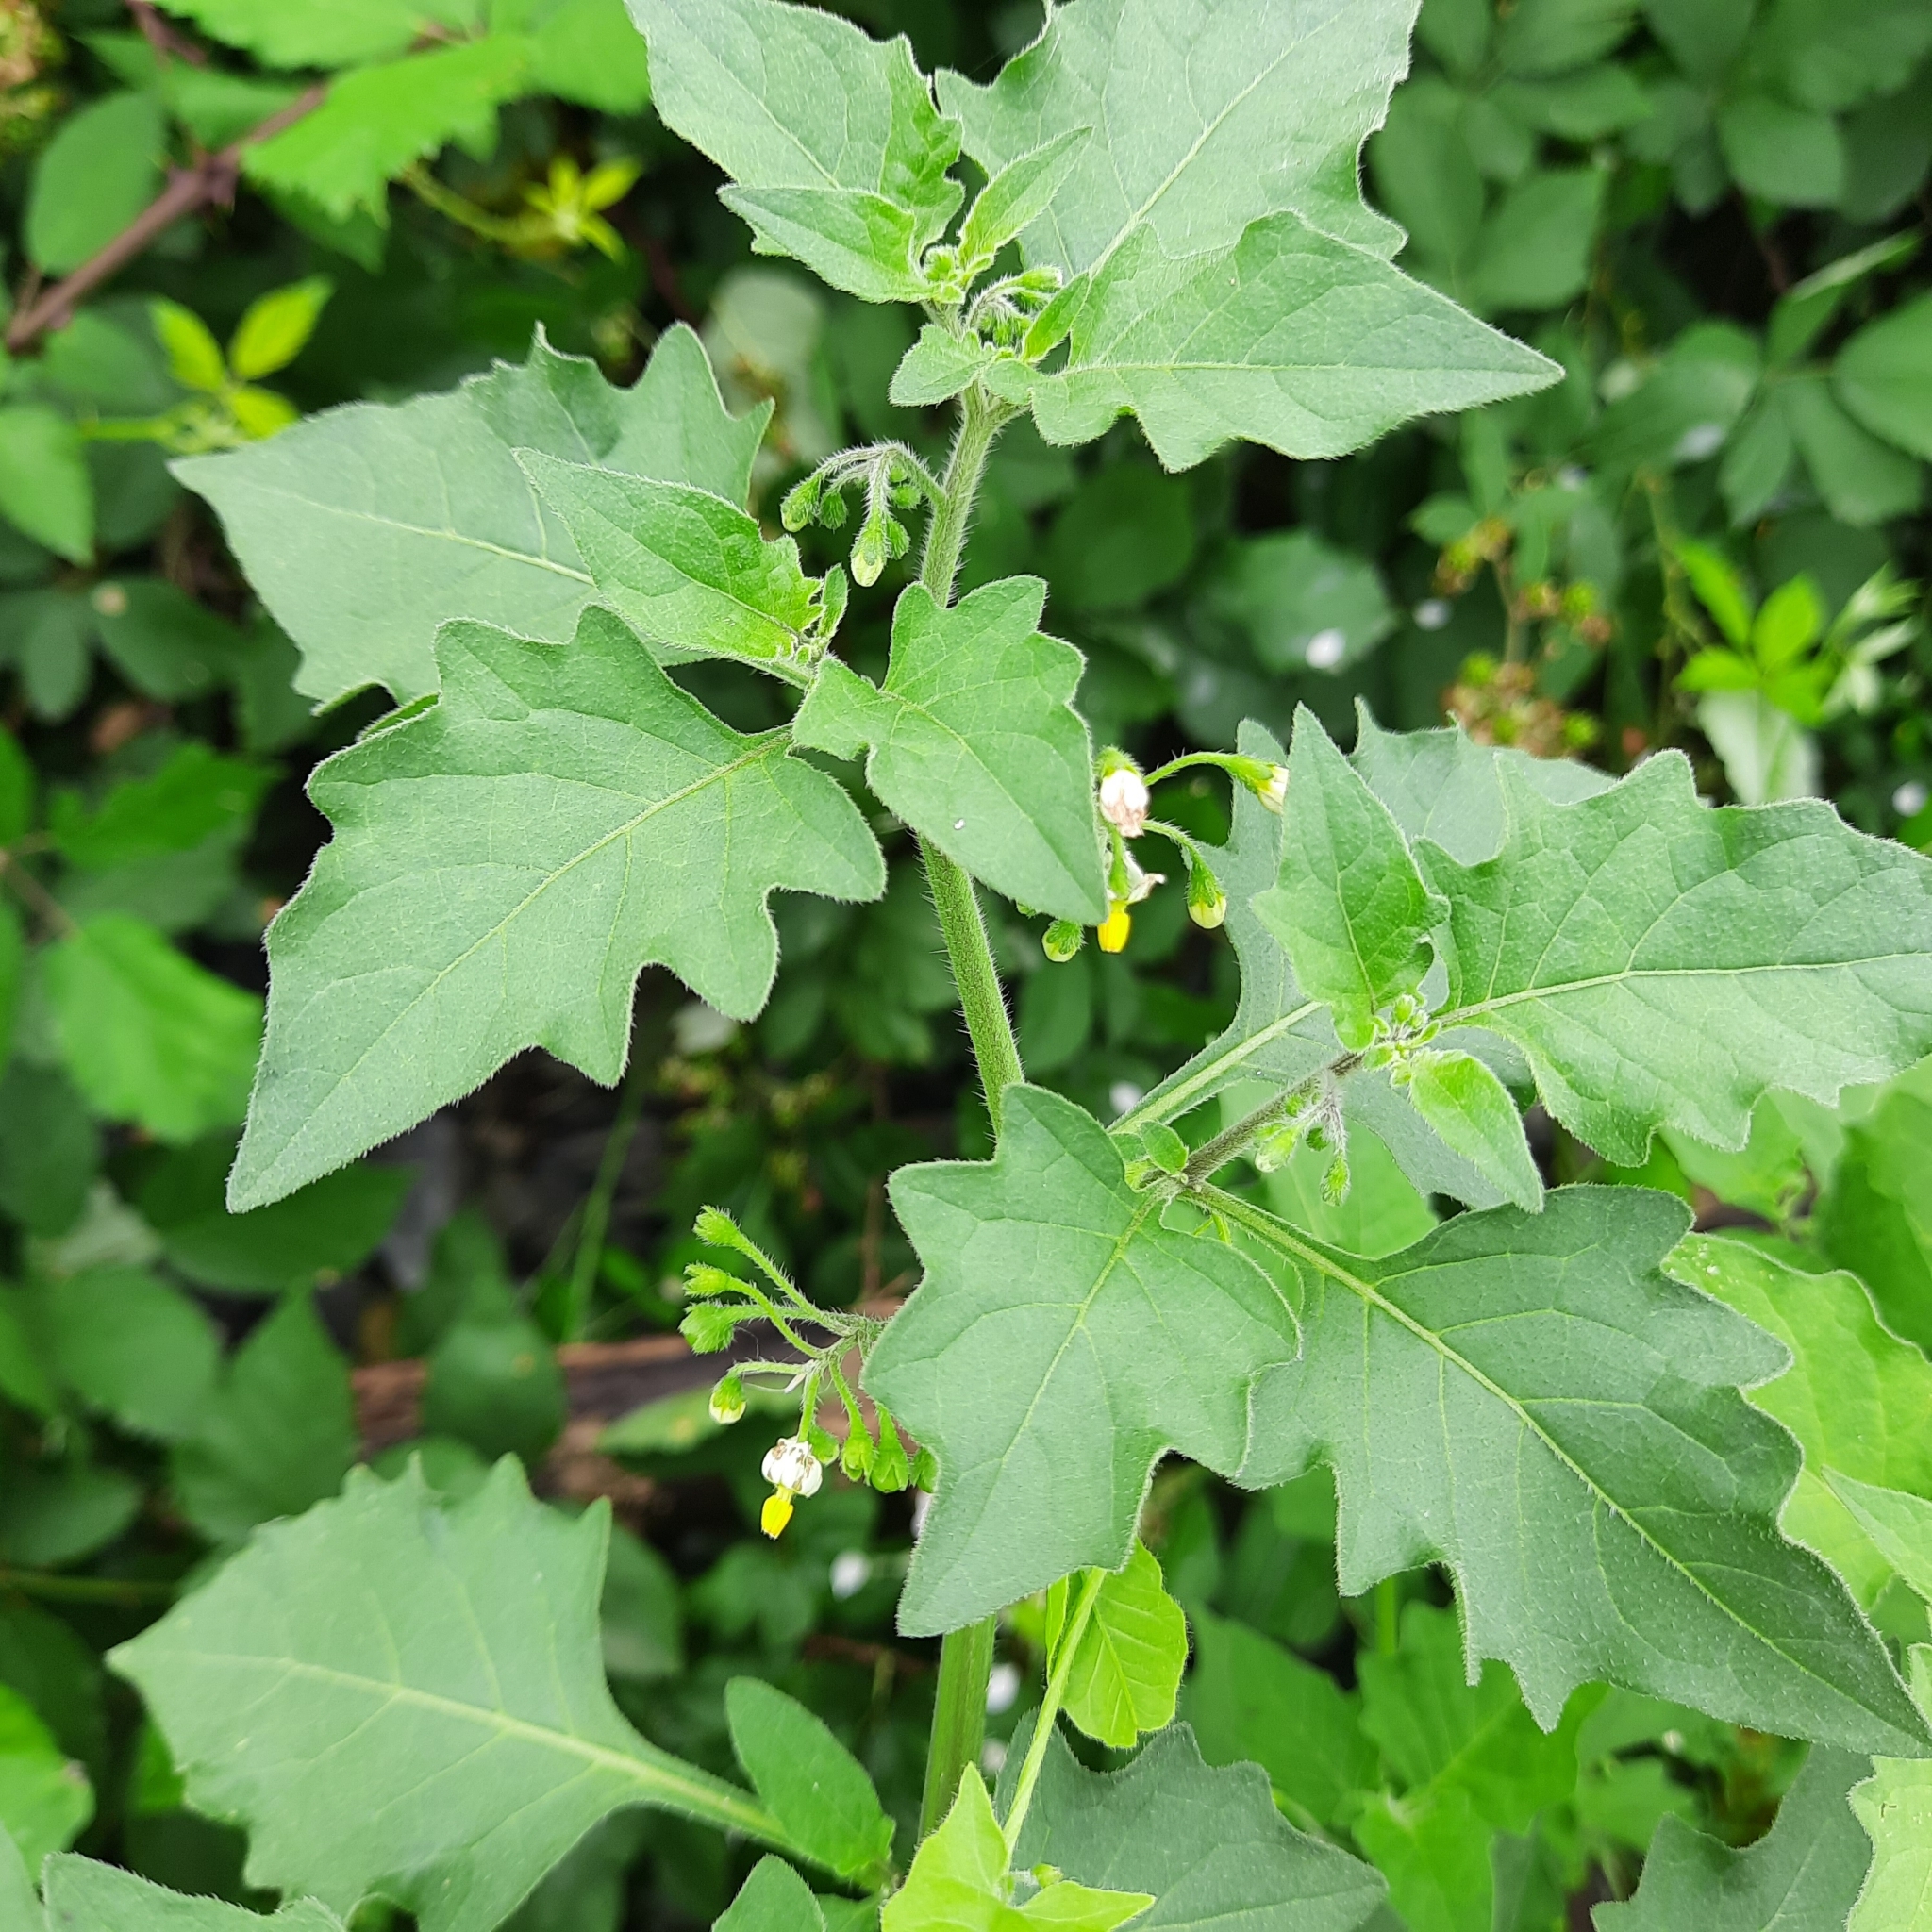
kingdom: Plantae
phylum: Tracheophyta
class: Magnoliopsida
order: Solanales
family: Solanaceae
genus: Solanum
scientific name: Solanum nigrum
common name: Black nightshade
